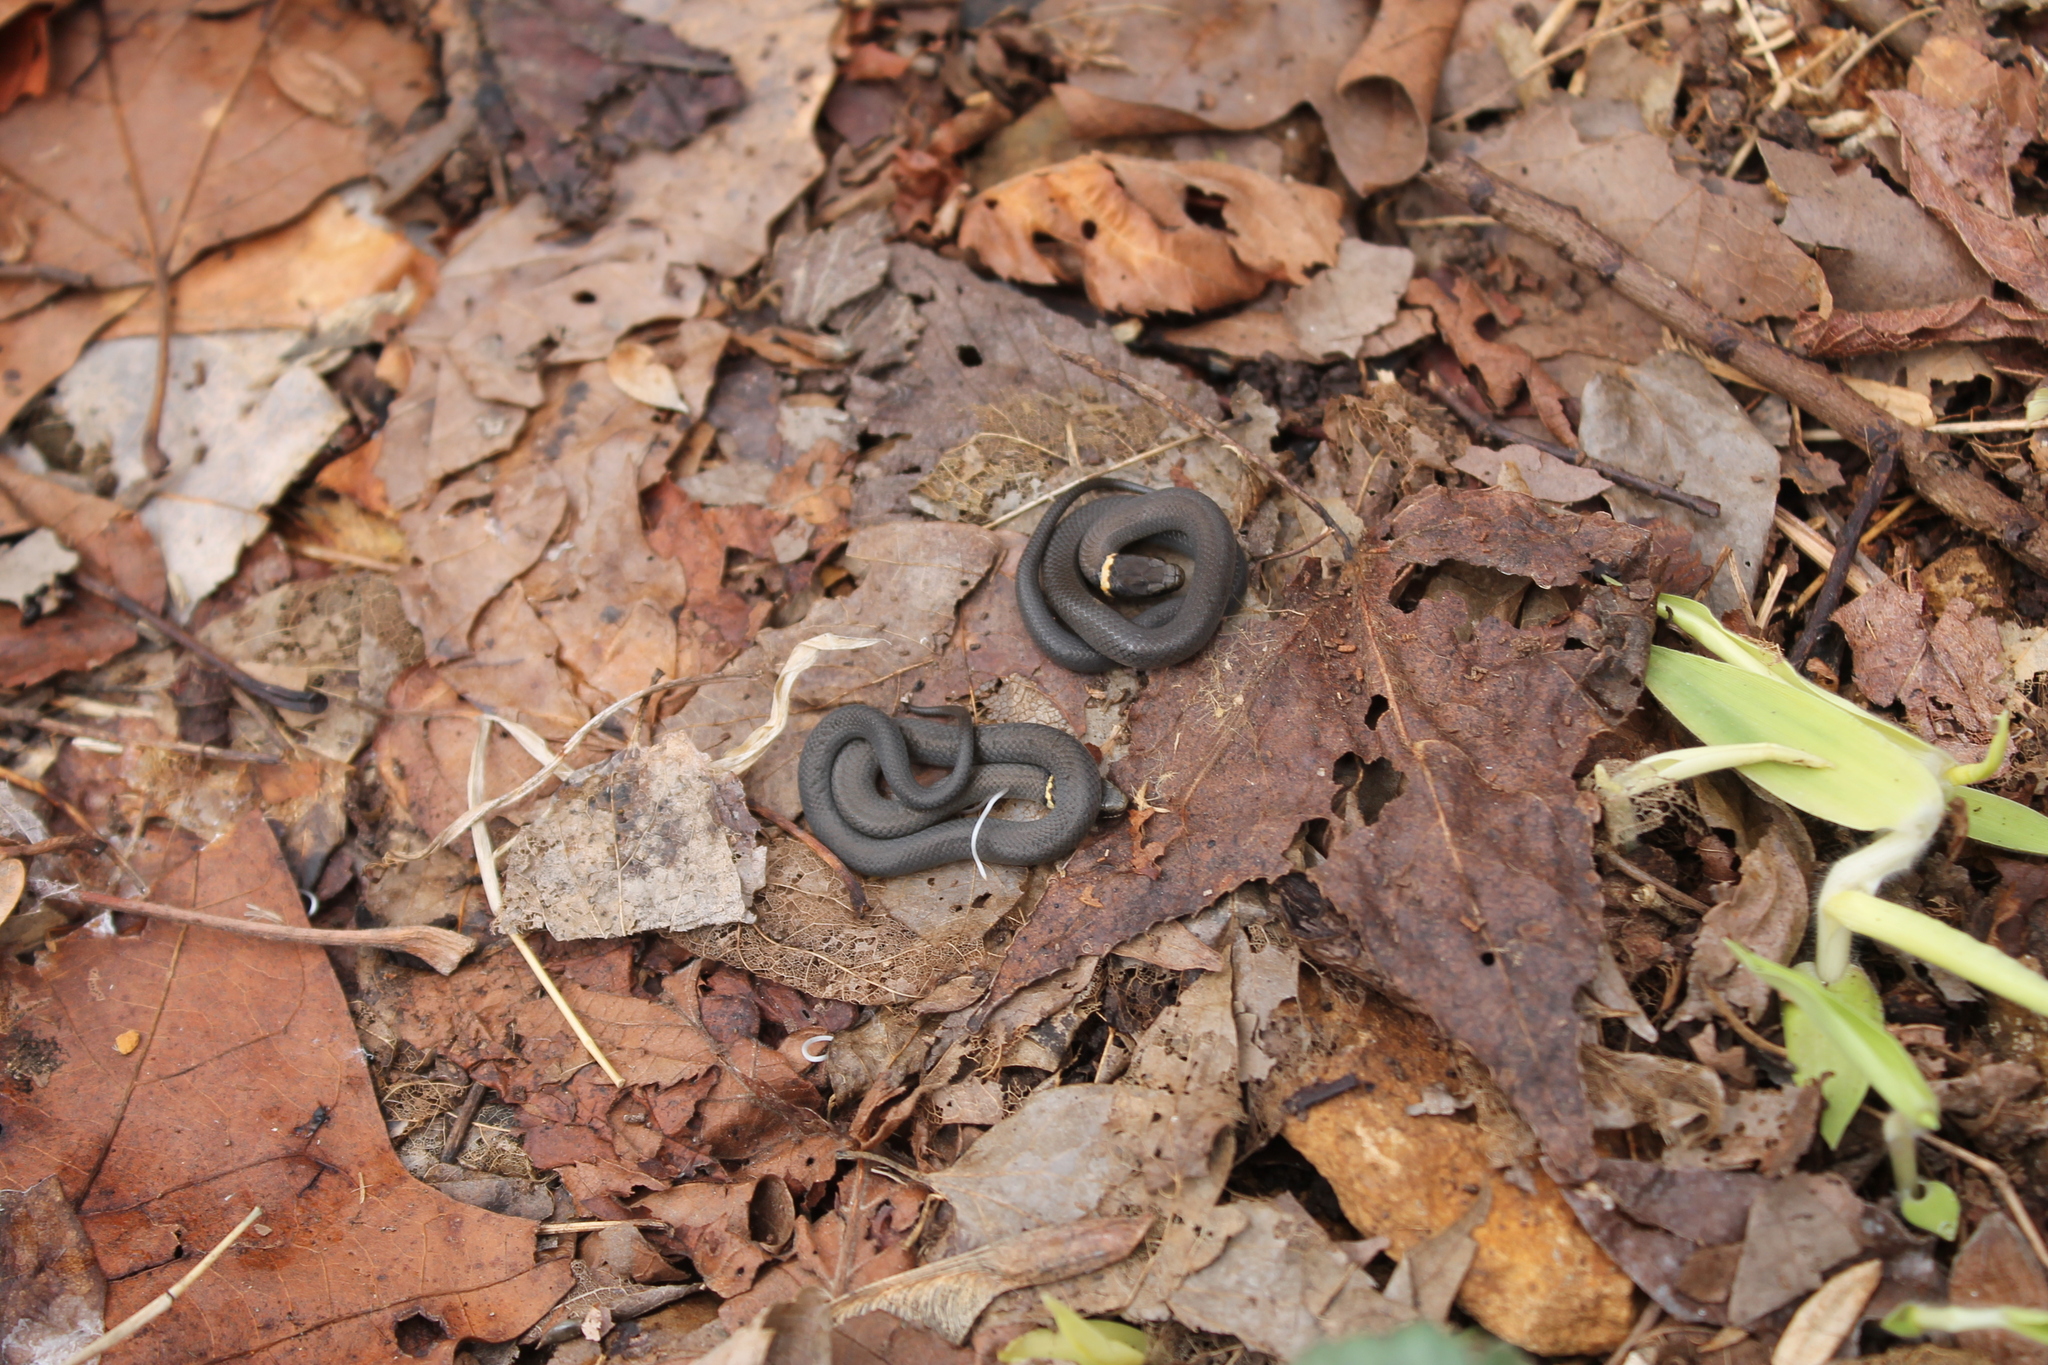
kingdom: Animalia
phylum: Chordata
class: Squamata
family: Colubridae
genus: Diadophis
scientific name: Diadophis punctatus
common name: Ringneck snake
